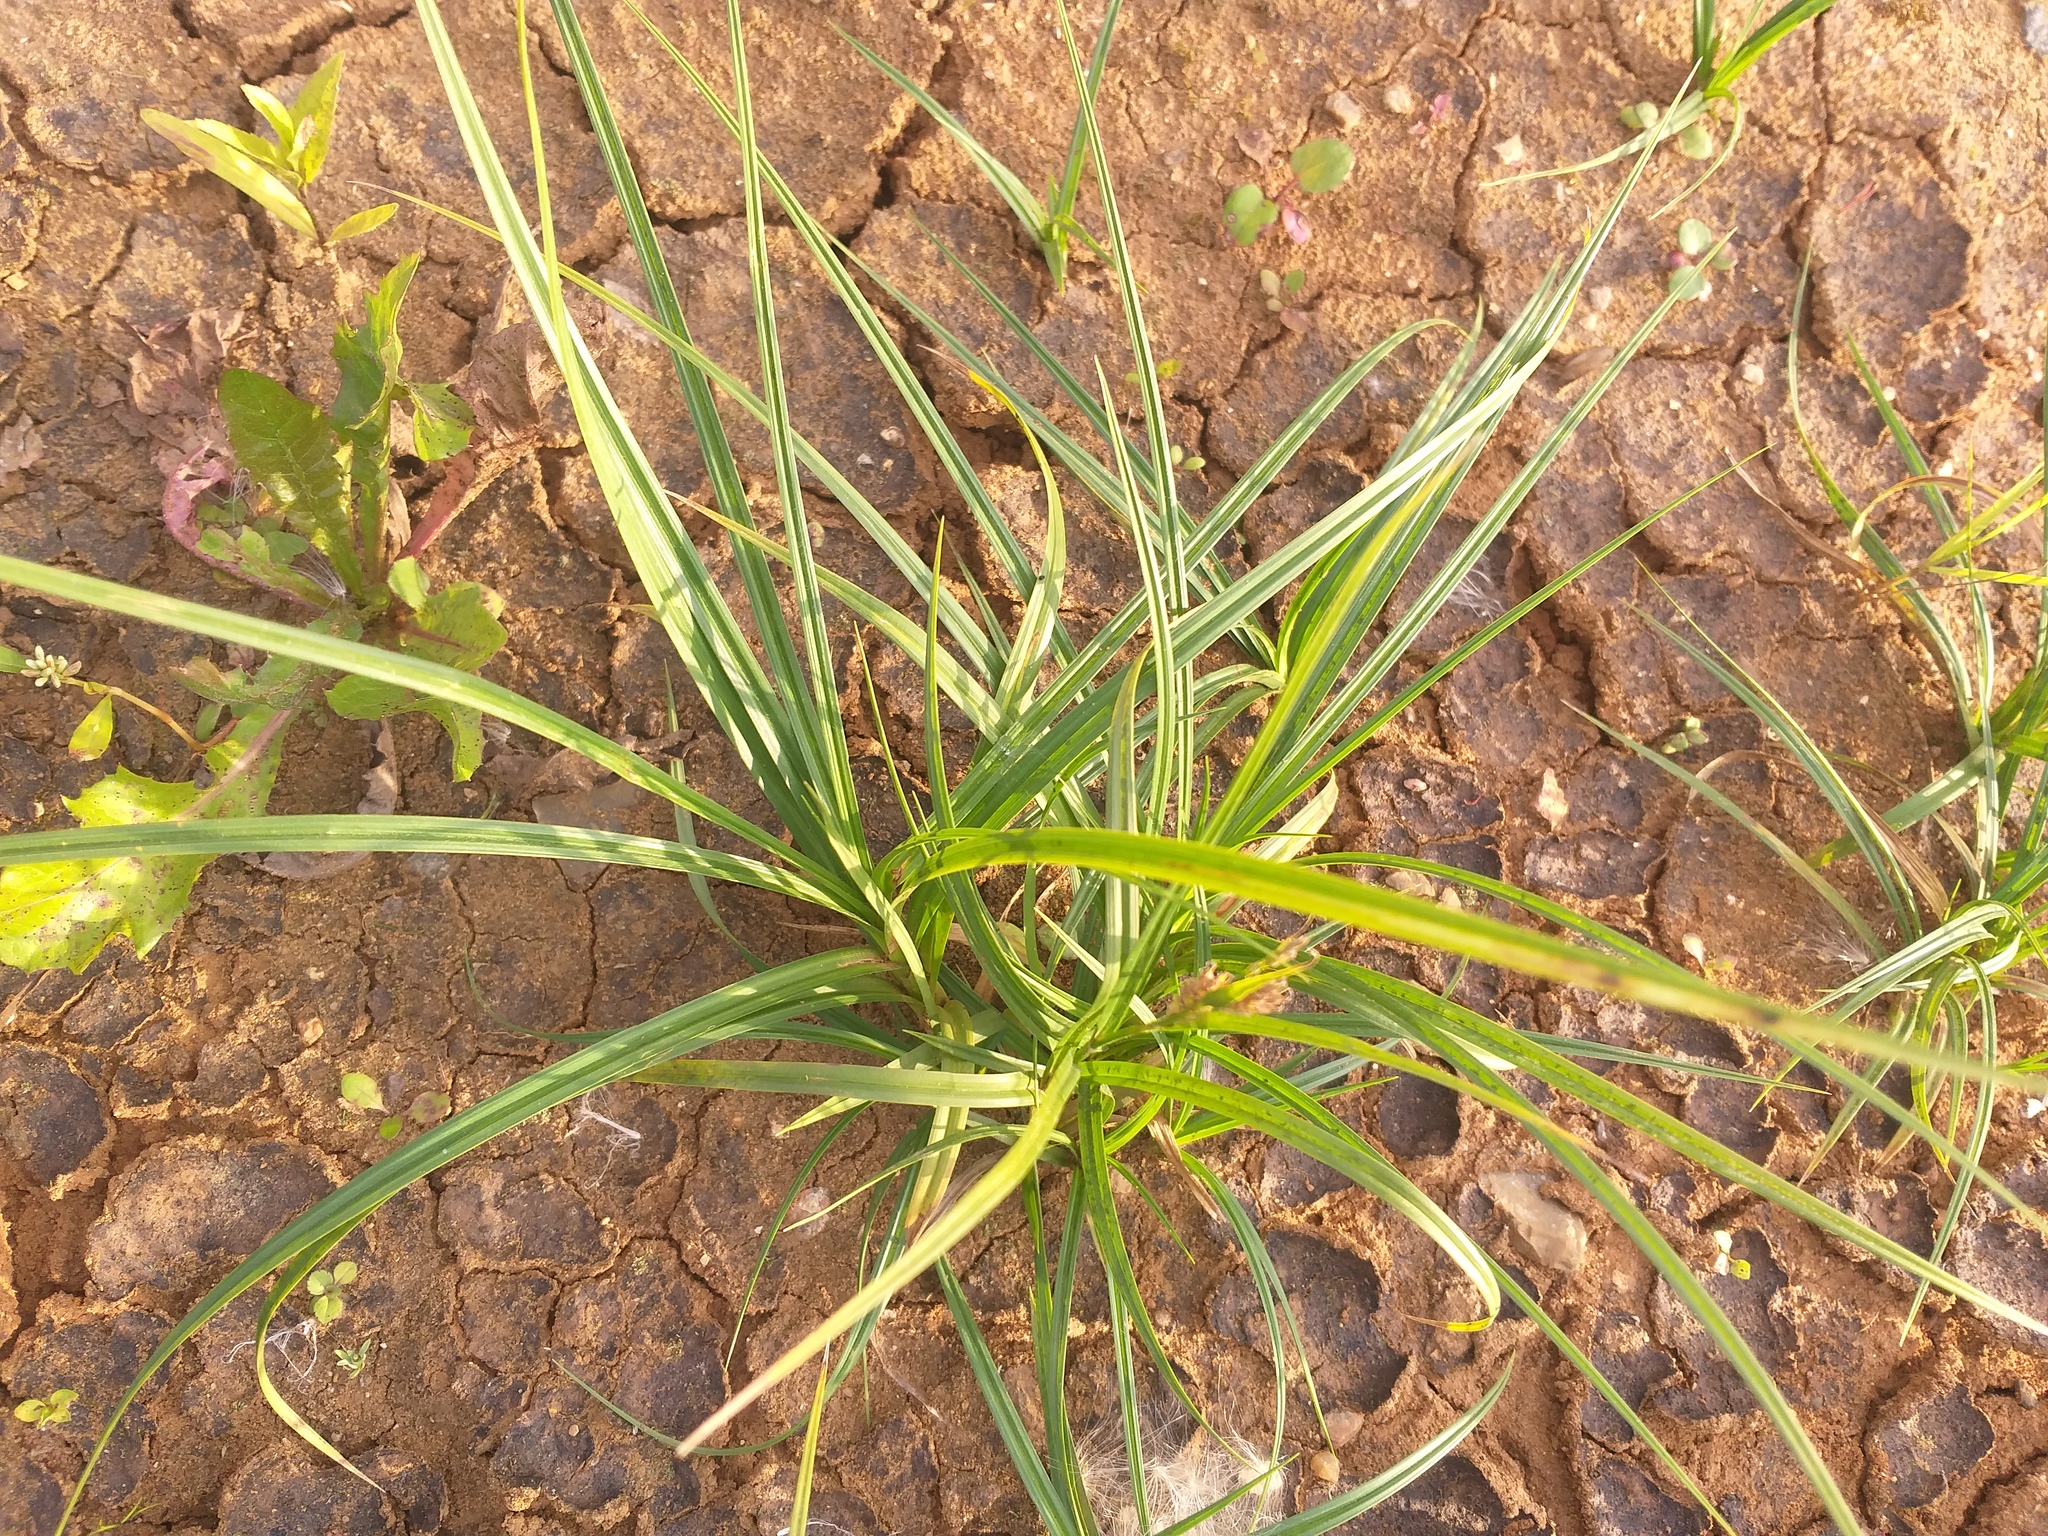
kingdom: Plantae
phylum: Tracheophyta
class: Liliopsida
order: Poales
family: Cyperaceae
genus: Carex
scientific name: Carex hirta
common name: Hairy sedge
